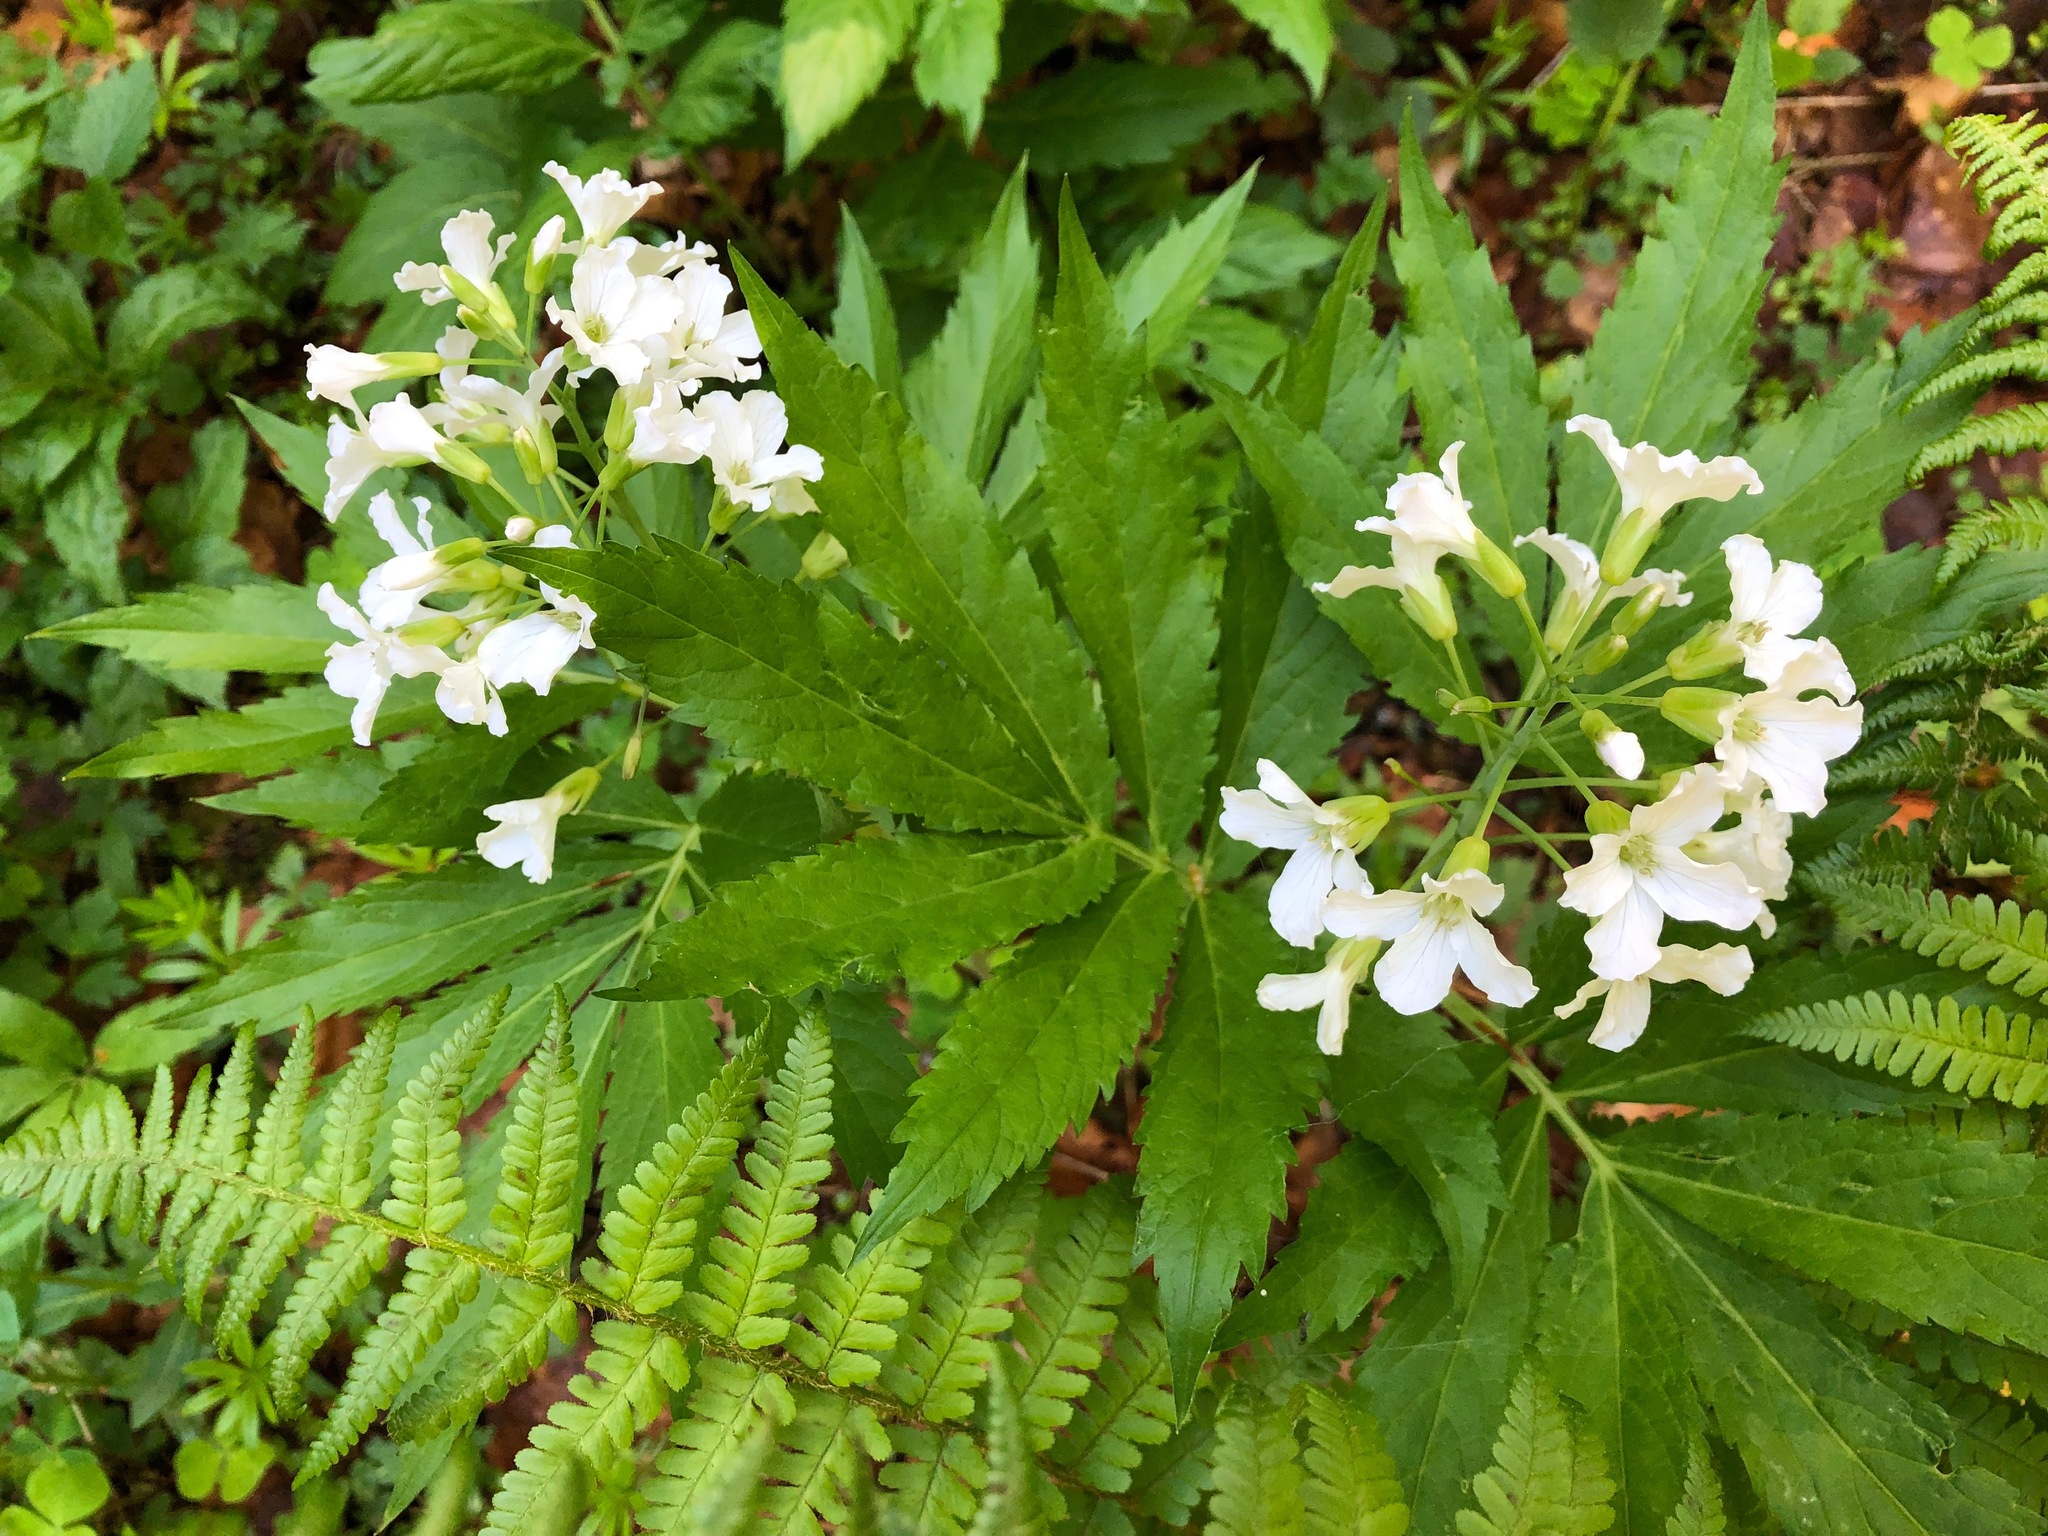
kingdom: Plantae
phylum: Tracheophyta
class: Magnoliopsida
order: Brassicales
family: Brassicaceae
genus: Cardamine
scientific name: Cardamine heptaphylla
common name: Pinnate coralroot
